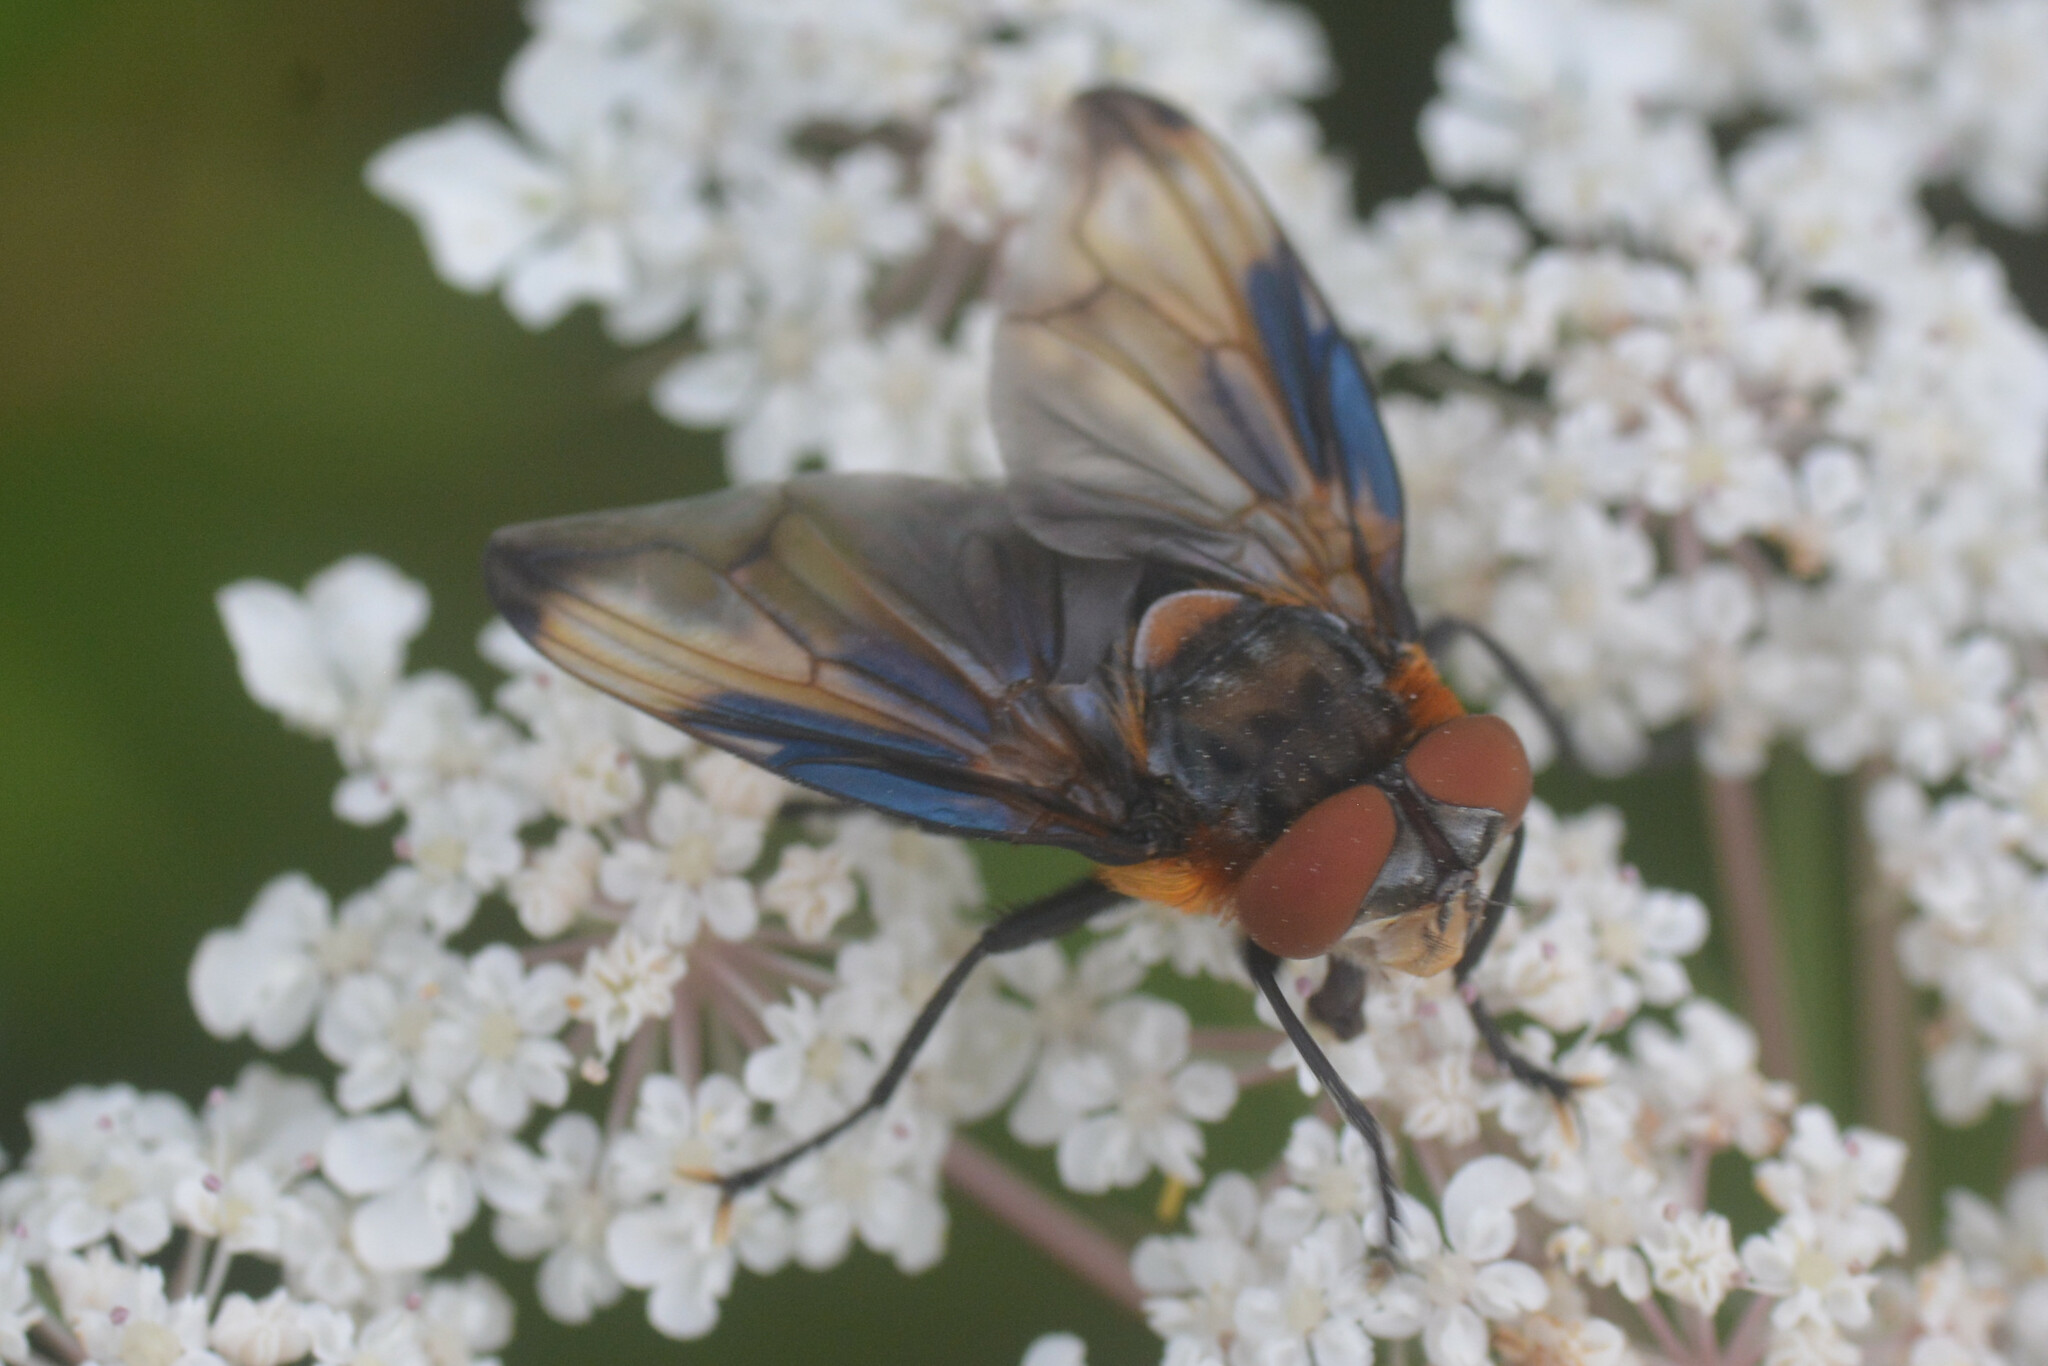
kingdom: Animalia
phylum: Arthropoda
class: Insecta
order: Diptera
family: Tachinidae
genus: Phasia
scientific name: Phasia hemiptera
